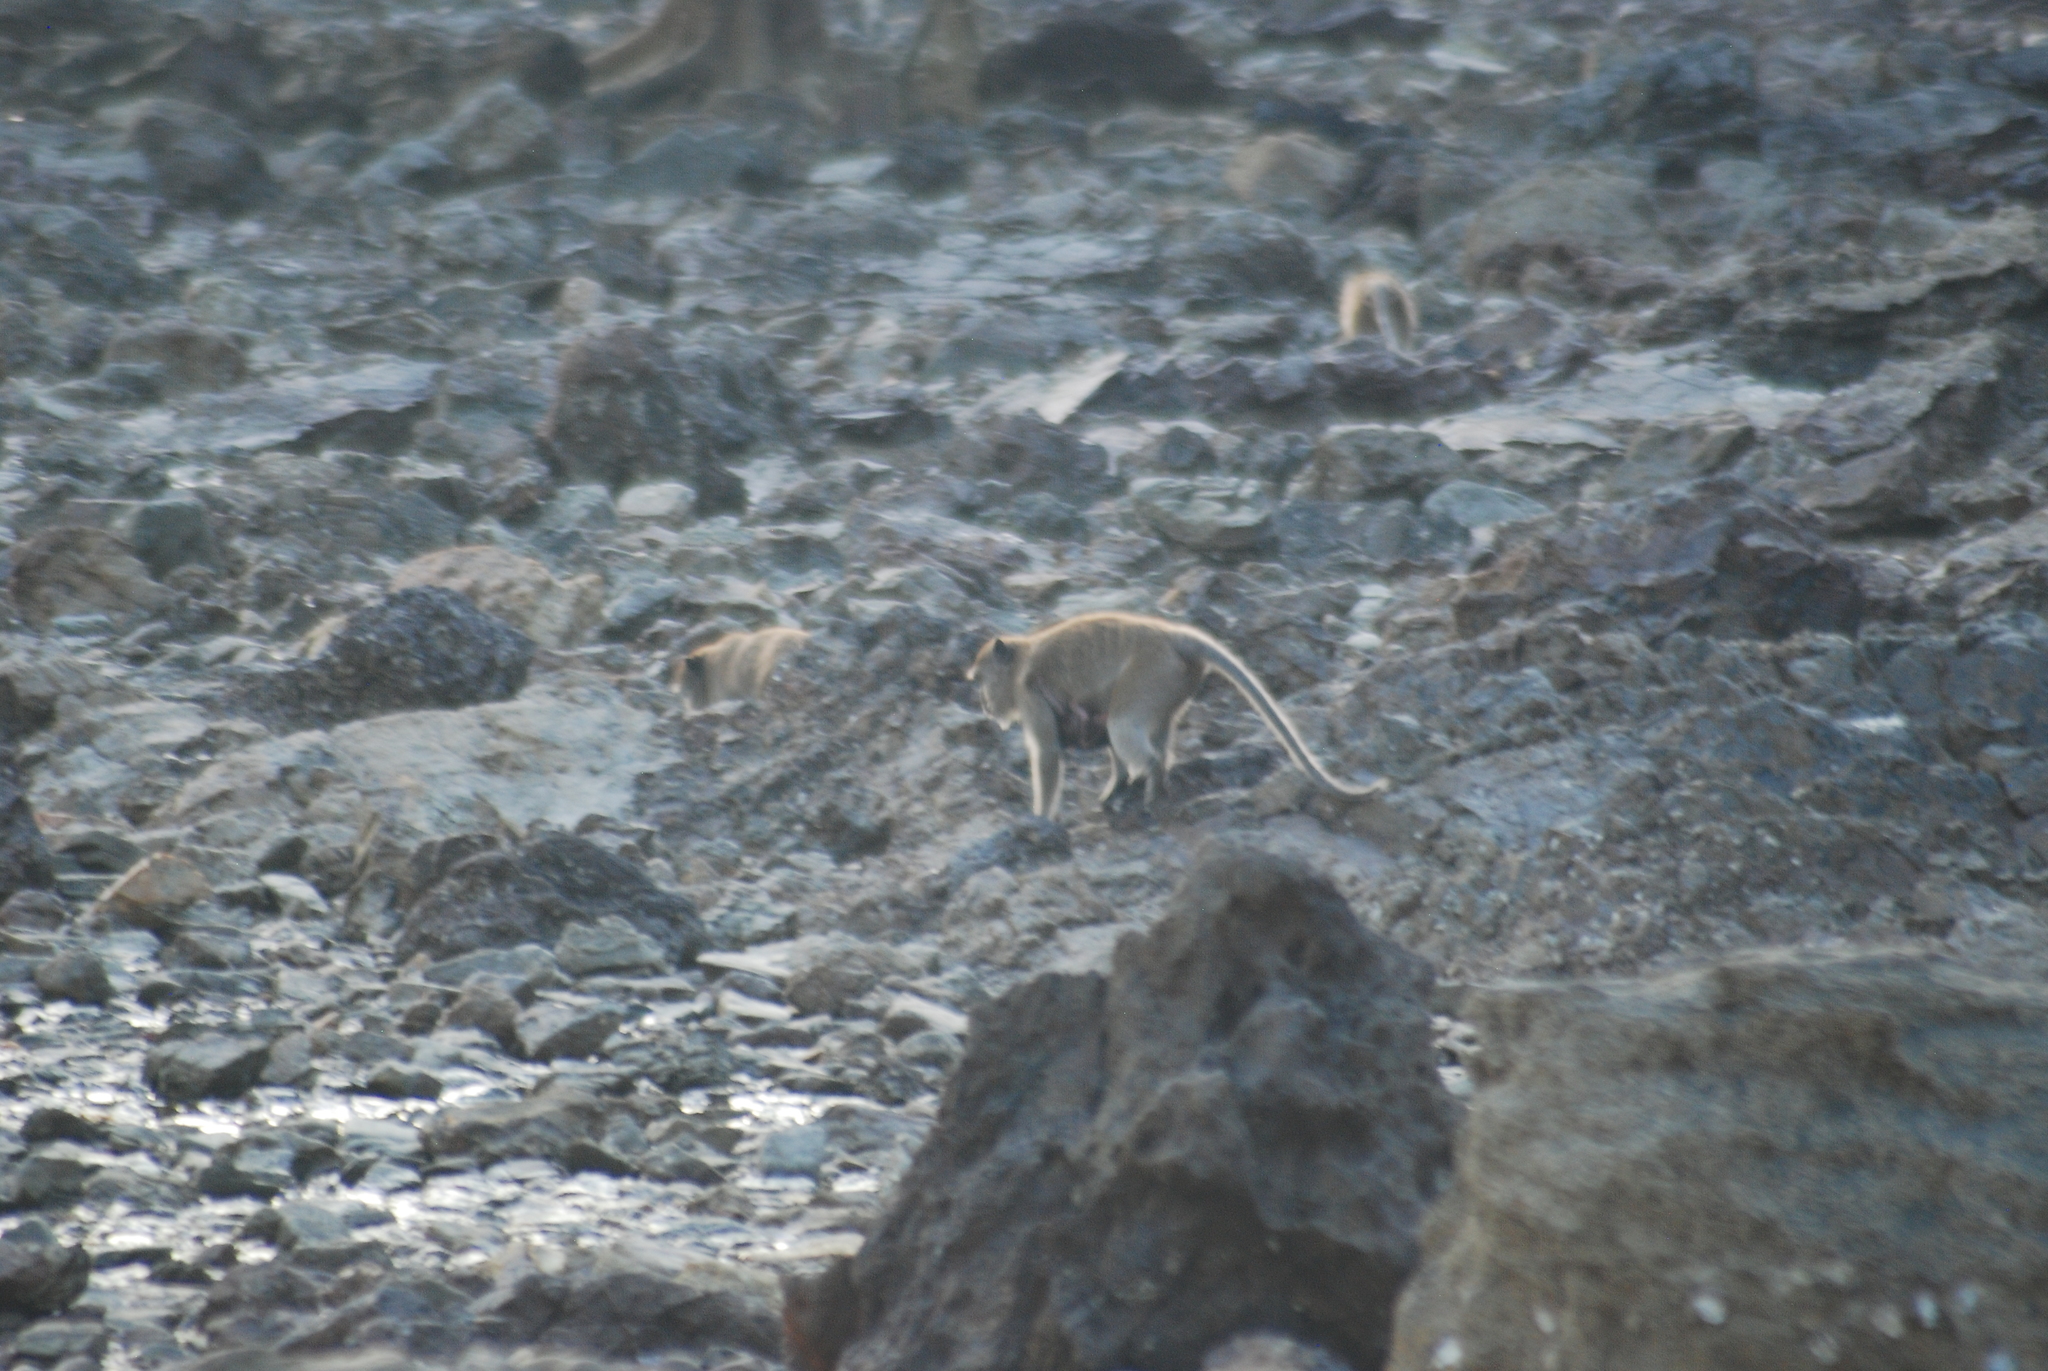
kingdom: Animalia
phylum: Chordata
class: Mammalia
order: Primates
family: Cercopithecidae
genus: Macaca
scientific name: Macaca fascicularis
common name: Crab-eating macaque
